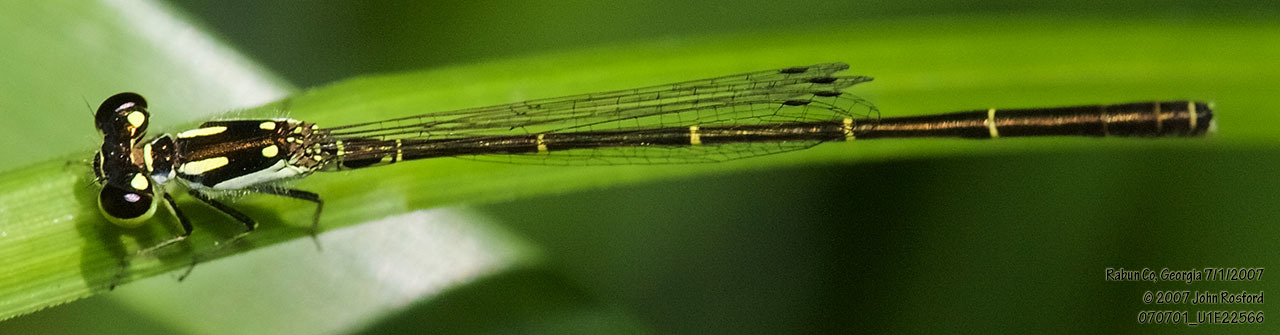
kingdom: Animalia
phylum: Arthropoda
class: Insecta
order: Odonata
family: Coenagrionidae
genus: Ischnura
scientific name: Ischnura posita
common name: Fragile forktail
